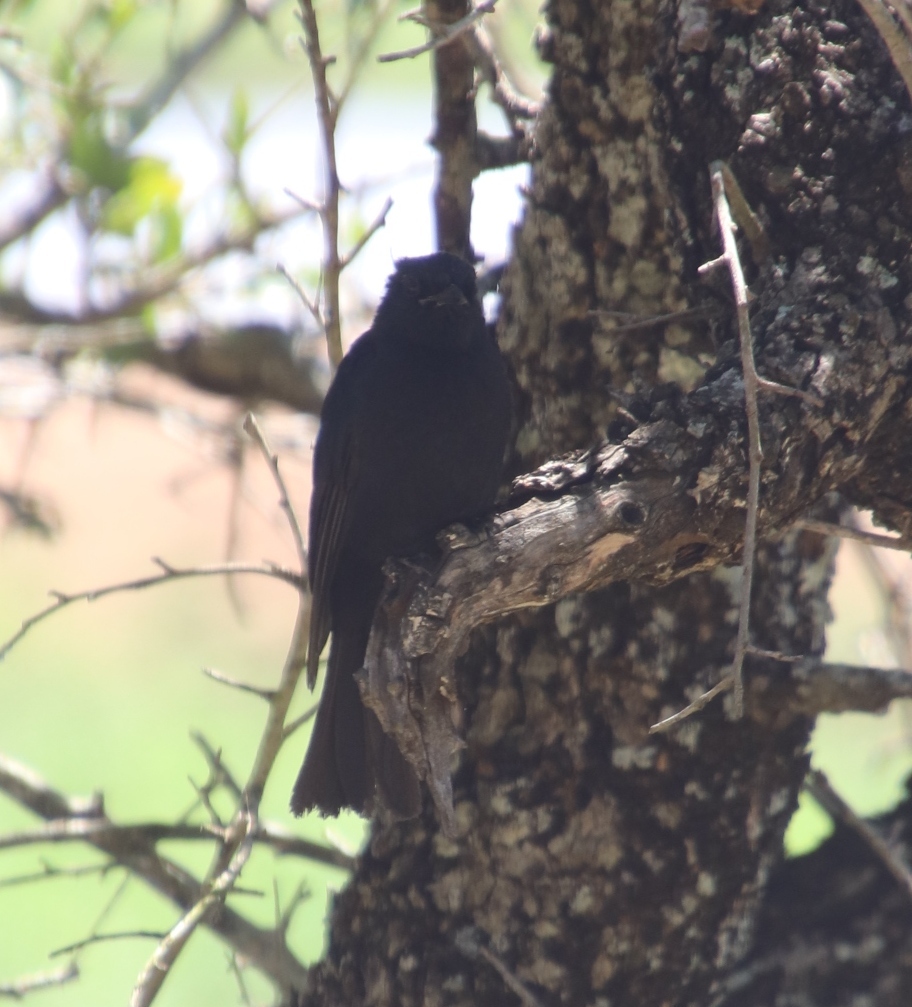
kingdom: Animalia
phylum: Chordata
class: Aves
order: Passeriformes
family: Dicruridae
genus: Dicrurus
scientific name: Dicrurus adsimilis
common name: Fork-tailed drongo
